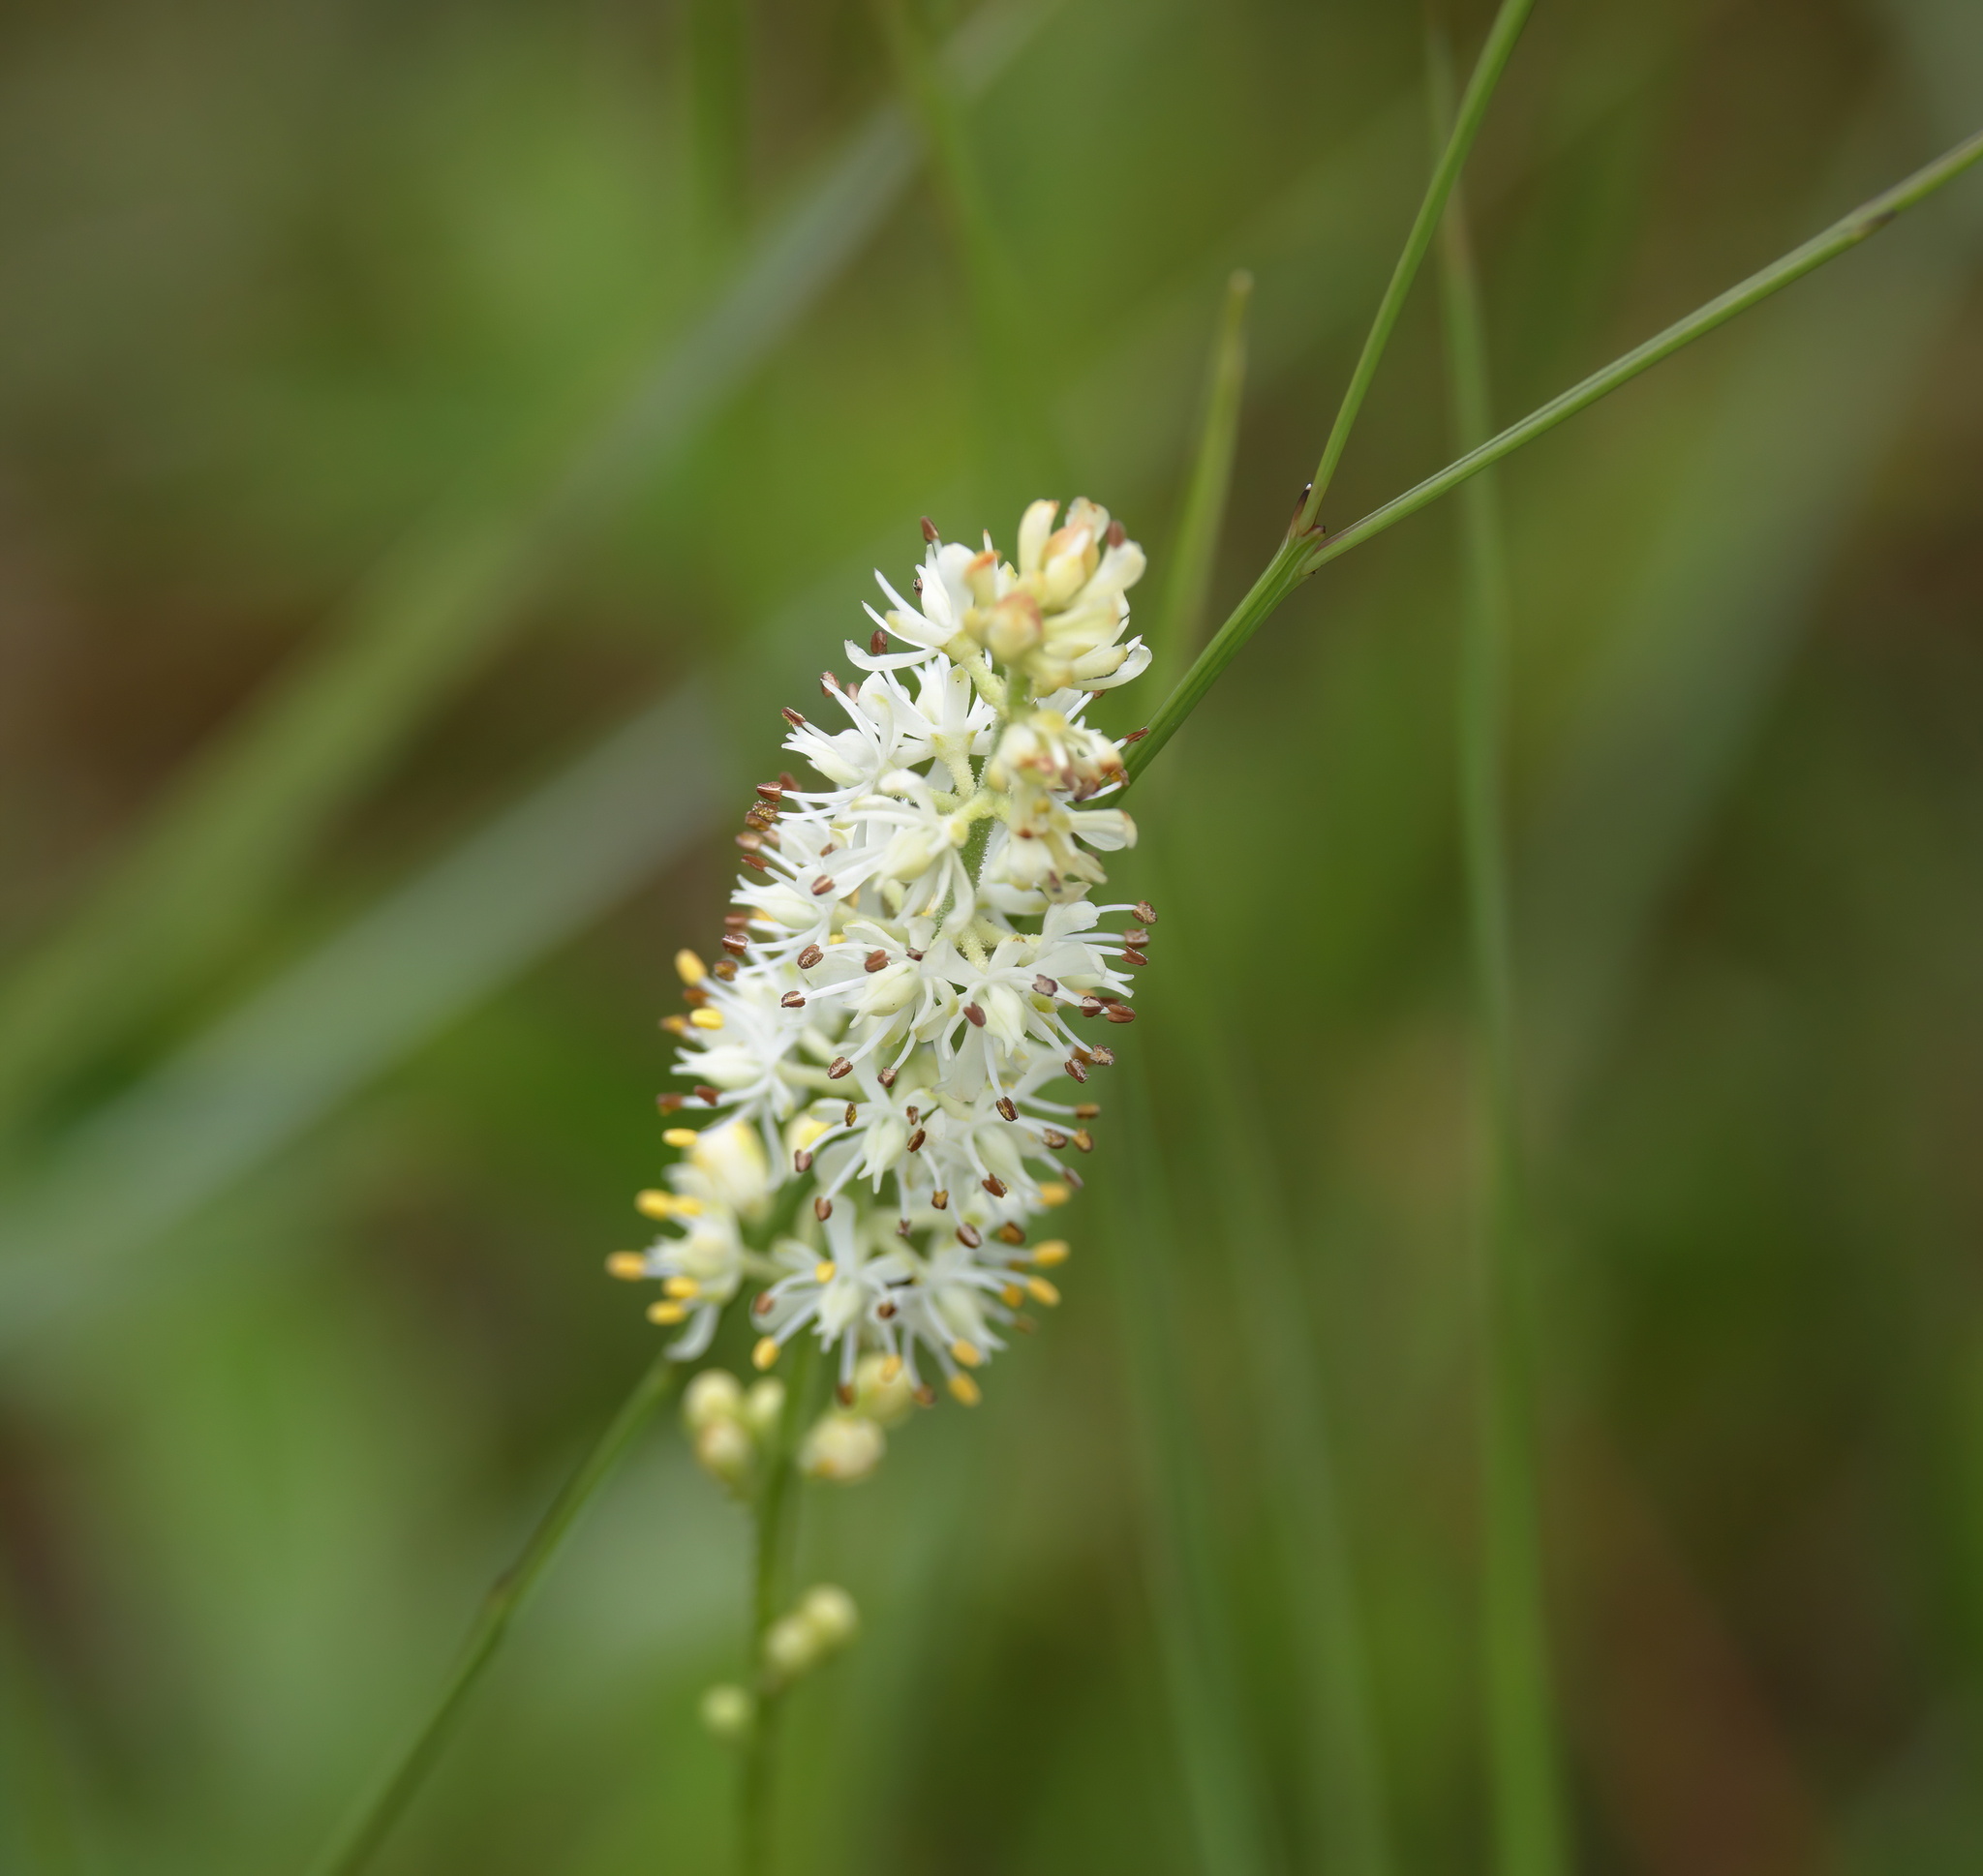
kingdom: Plantae
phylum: Tracheophyta
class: Liliopsida
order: Alismatales
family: Tofieldiaceae
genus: Triantha
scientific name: Triantha racemosa
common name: Coastal false asphodel
